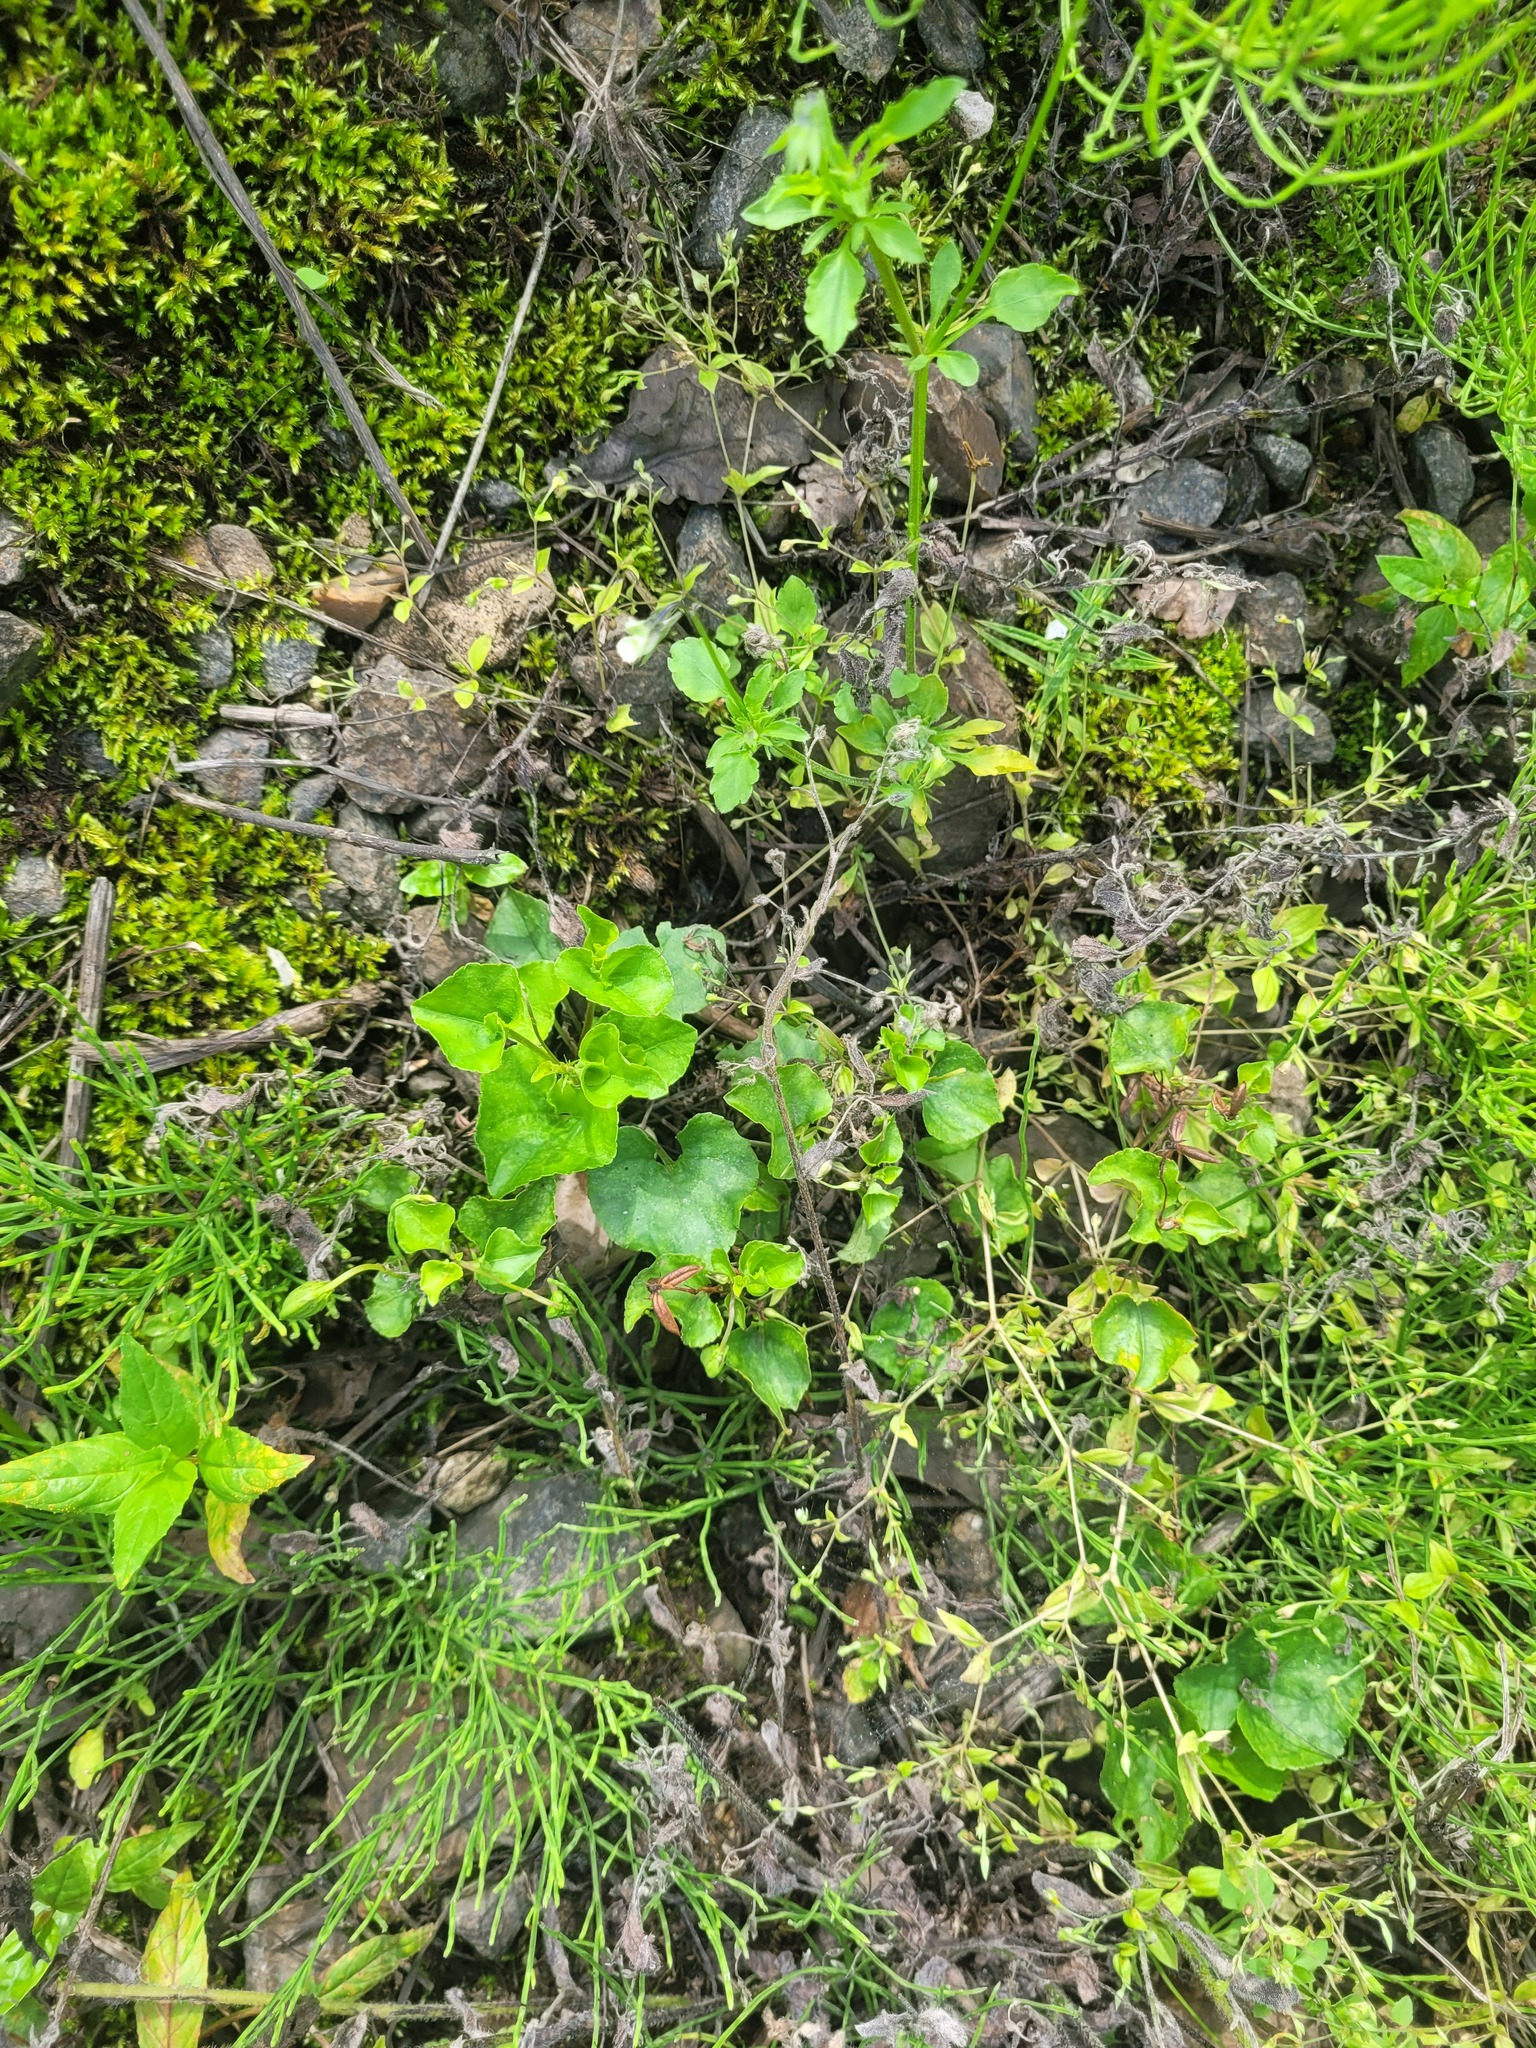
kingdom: Plantae
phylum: Tracheophyta
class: Magnoliopsida
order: Malpighiales
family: Violaceae
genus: Viola
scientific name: Viola riviniana
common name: Common dog-violet
